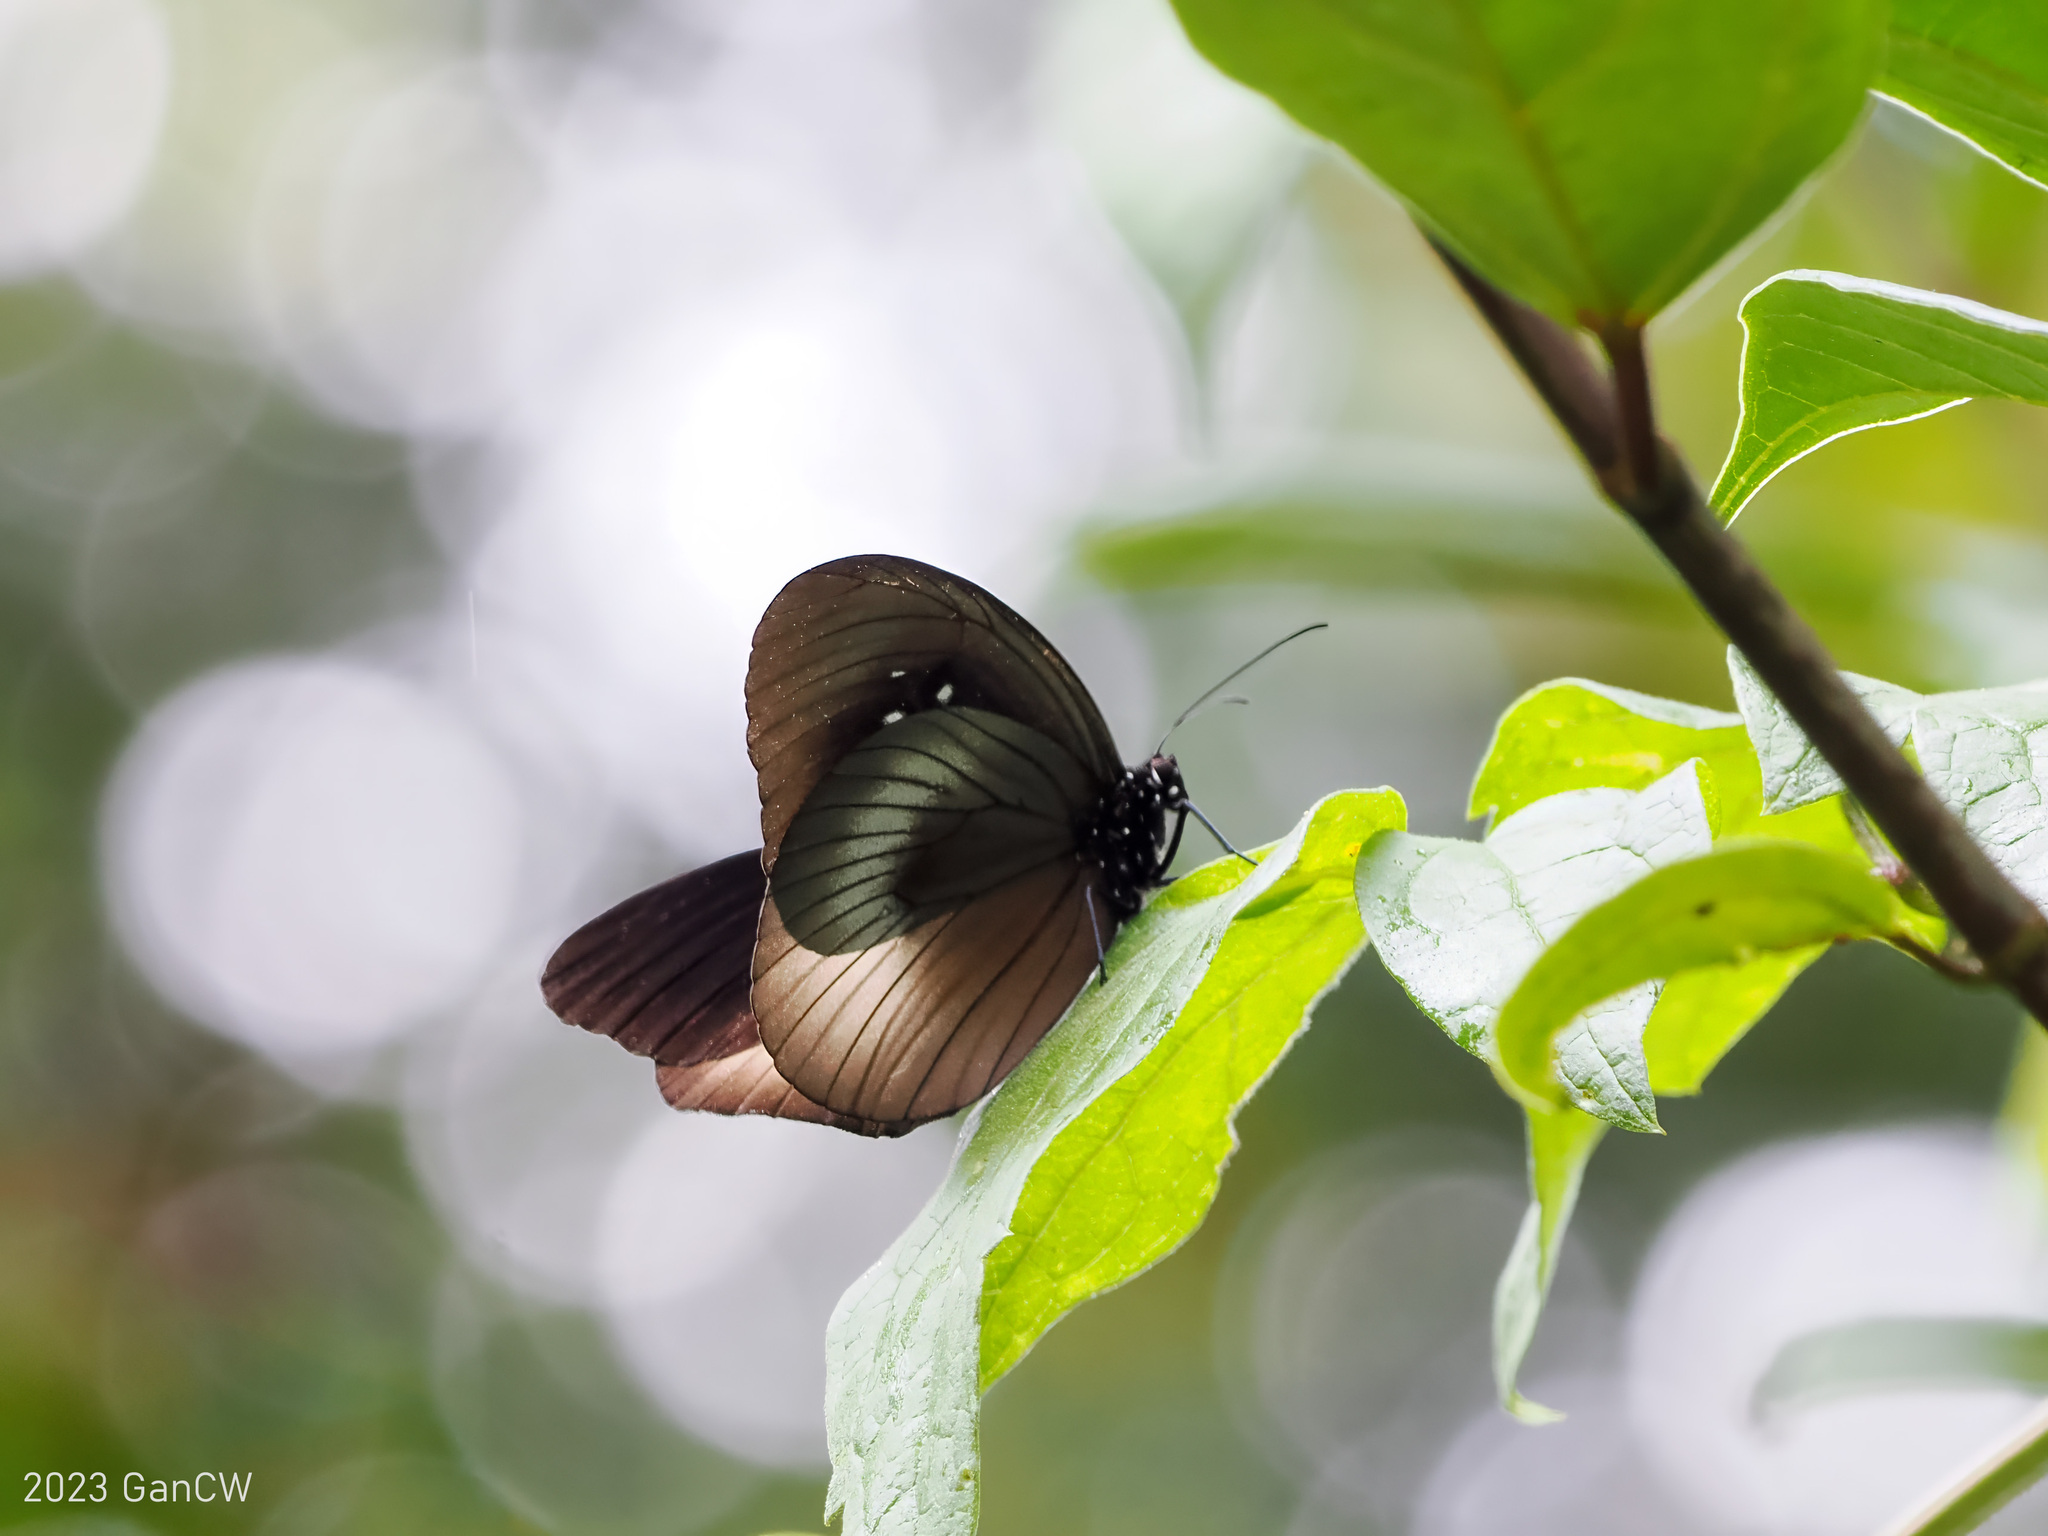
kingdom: Animalia
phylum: Arthropoda
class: Insecta
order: Lepidoptera
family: Nymphalidae
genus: Euploea
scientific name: Euploea magou
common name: Magou
